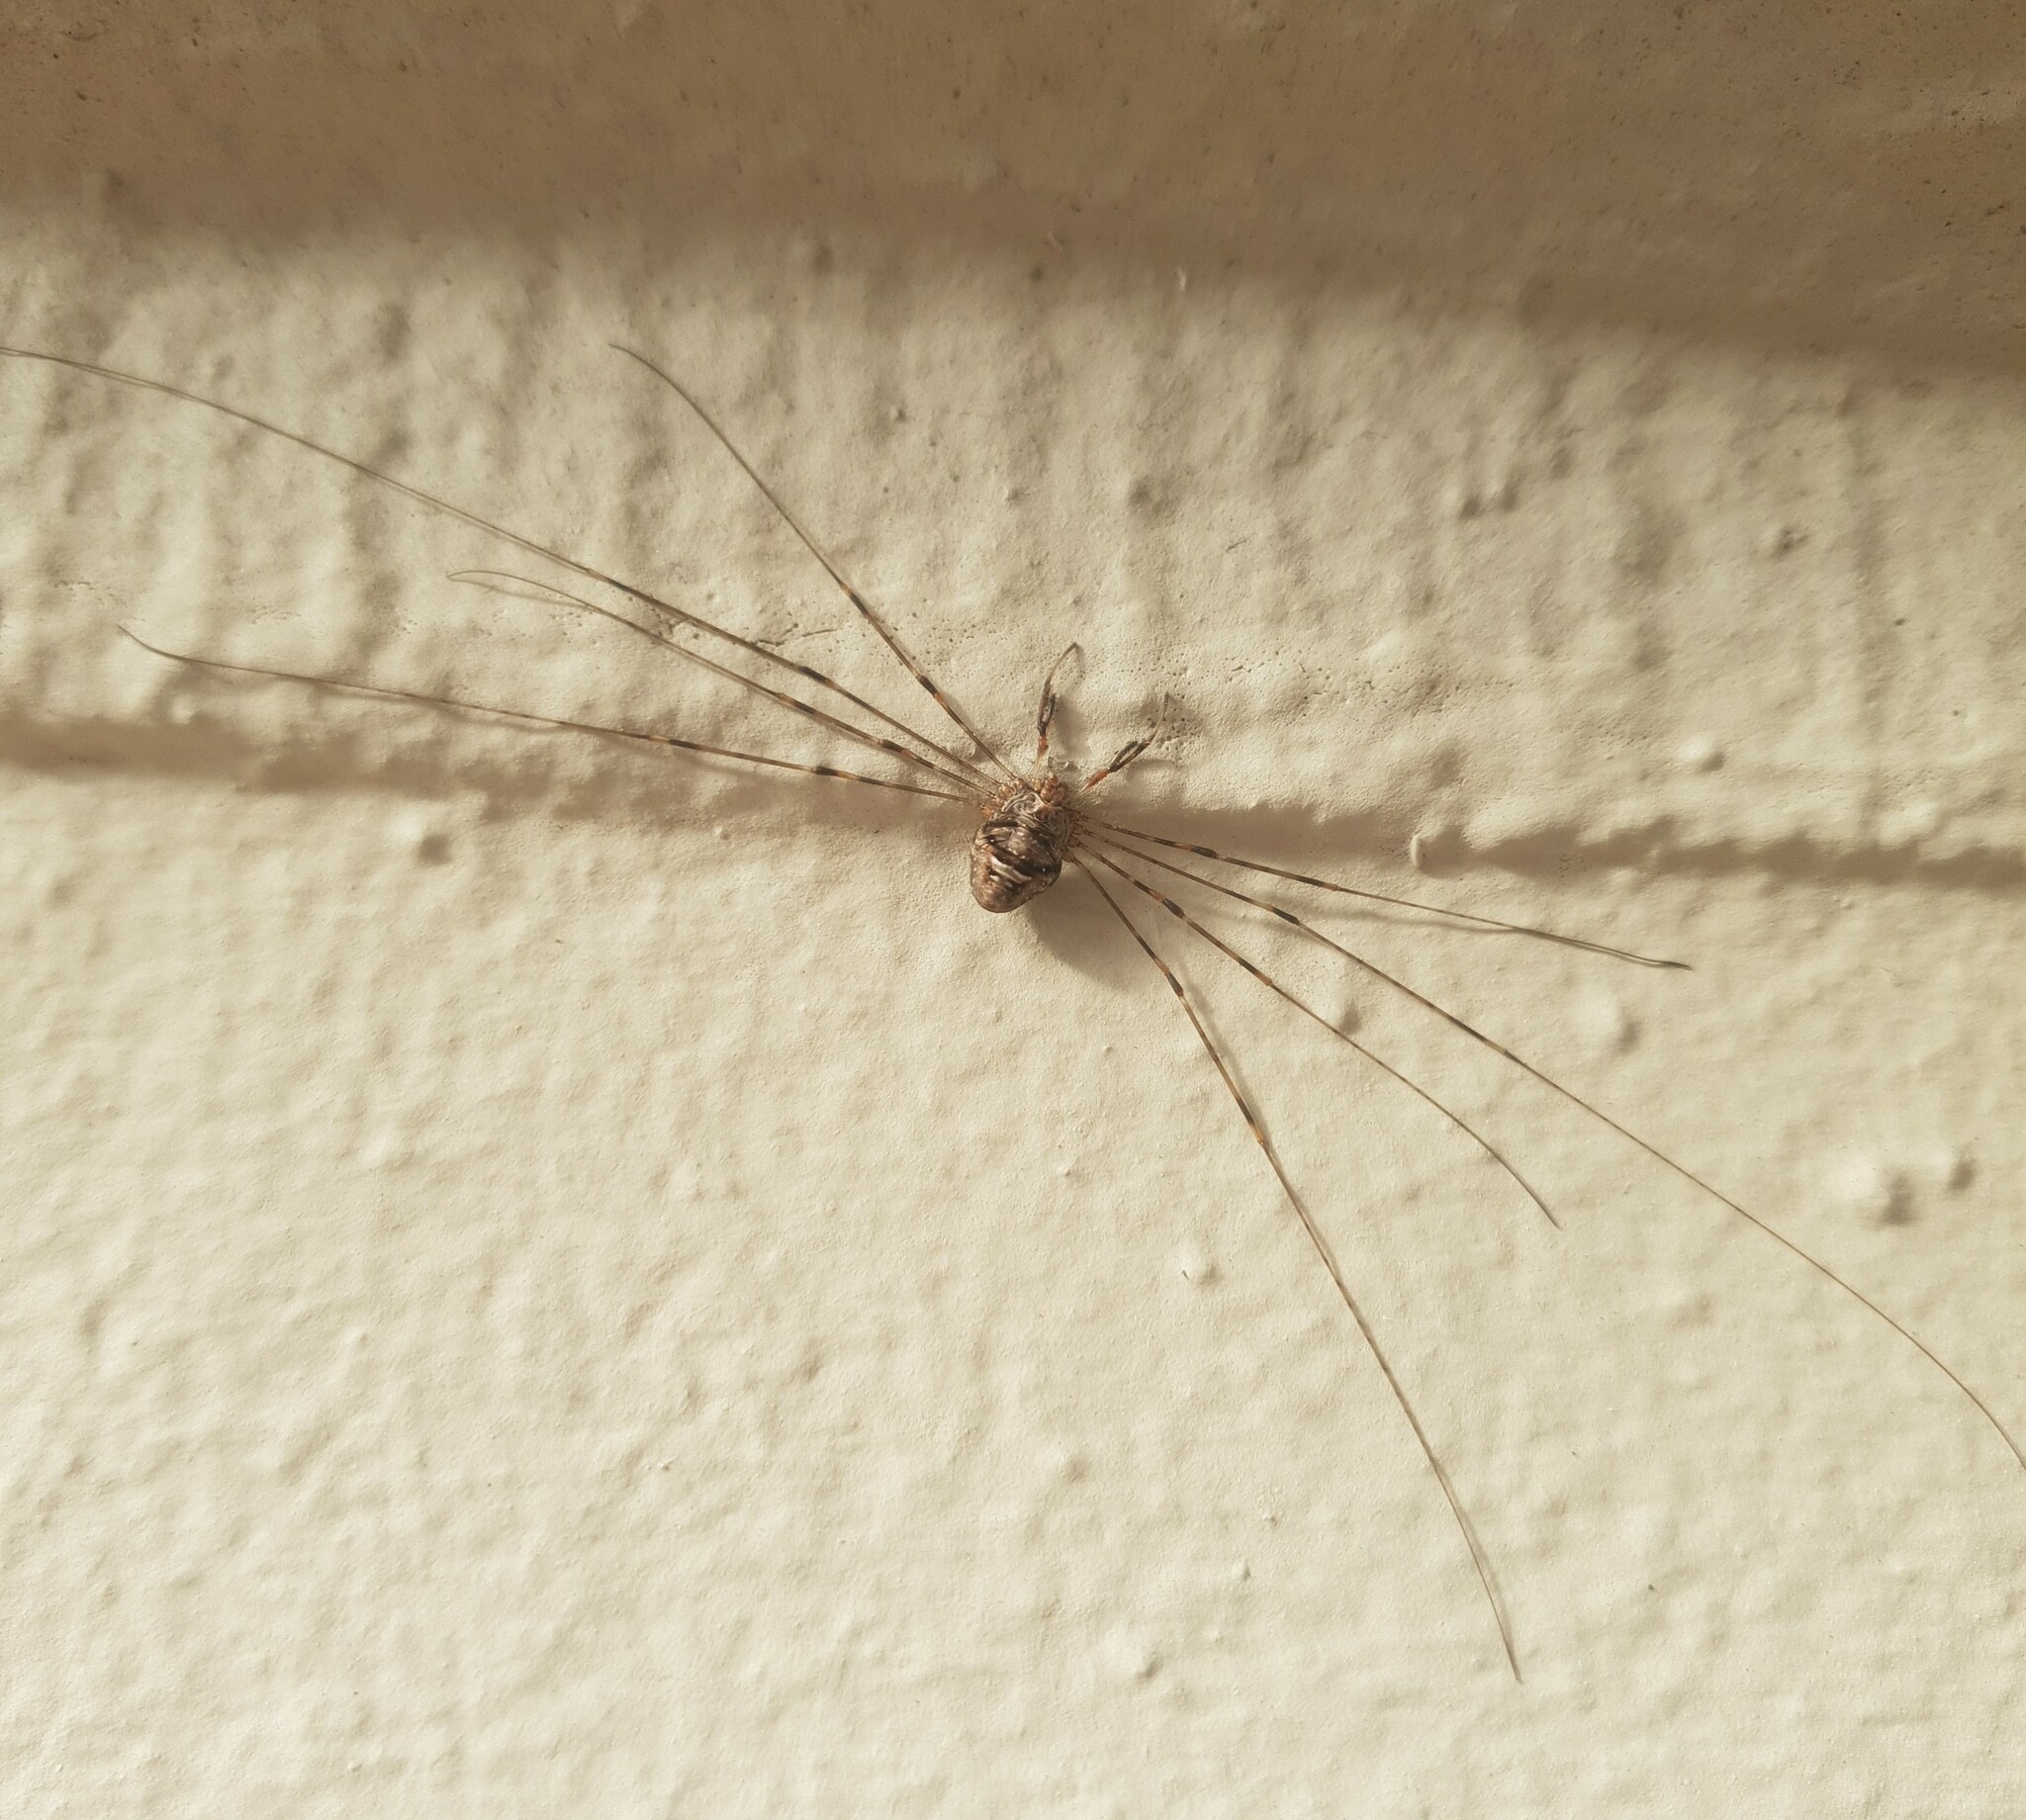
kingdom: Animalia
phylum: Arthropoda
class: Arachnida
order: Opiliones
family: Phalangiidae
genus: Dicranopalpus
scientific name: Dicranopalpus ramosus
